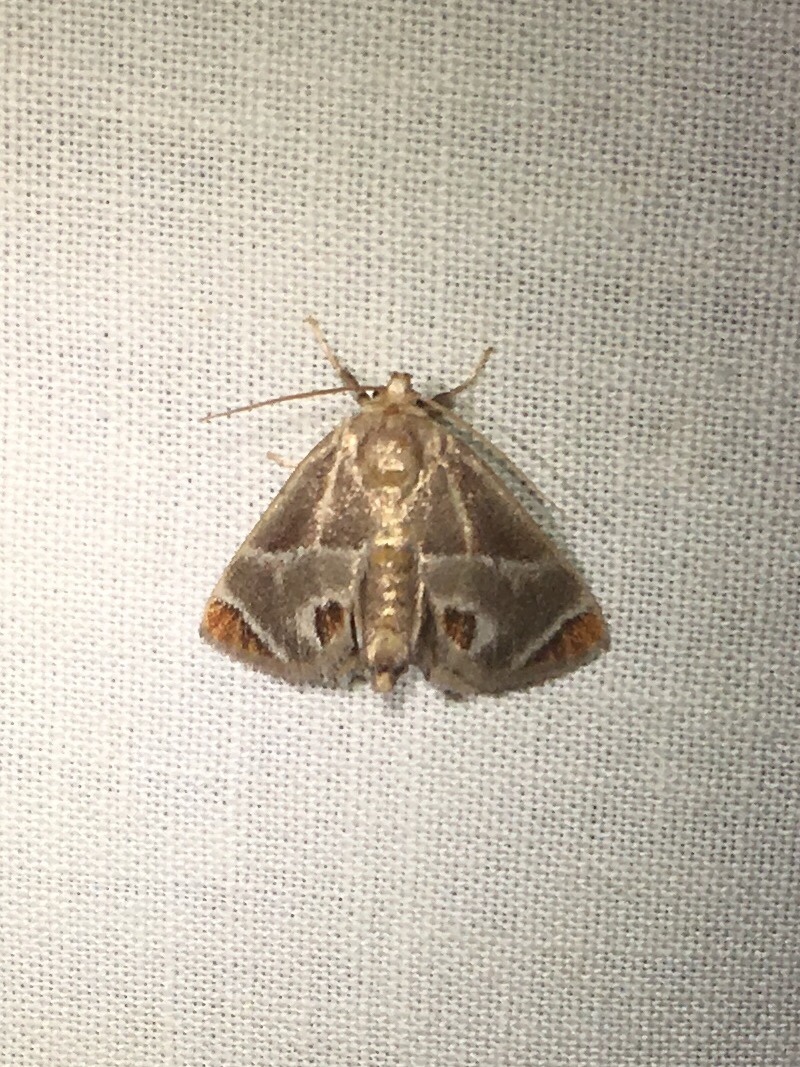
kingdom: Animalia
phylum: Arthropoda
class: Insecta
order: Lepidoptera
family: Limacodidae
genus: Apoda
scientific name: Apoda biguttata
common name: Shagreened slug moth
